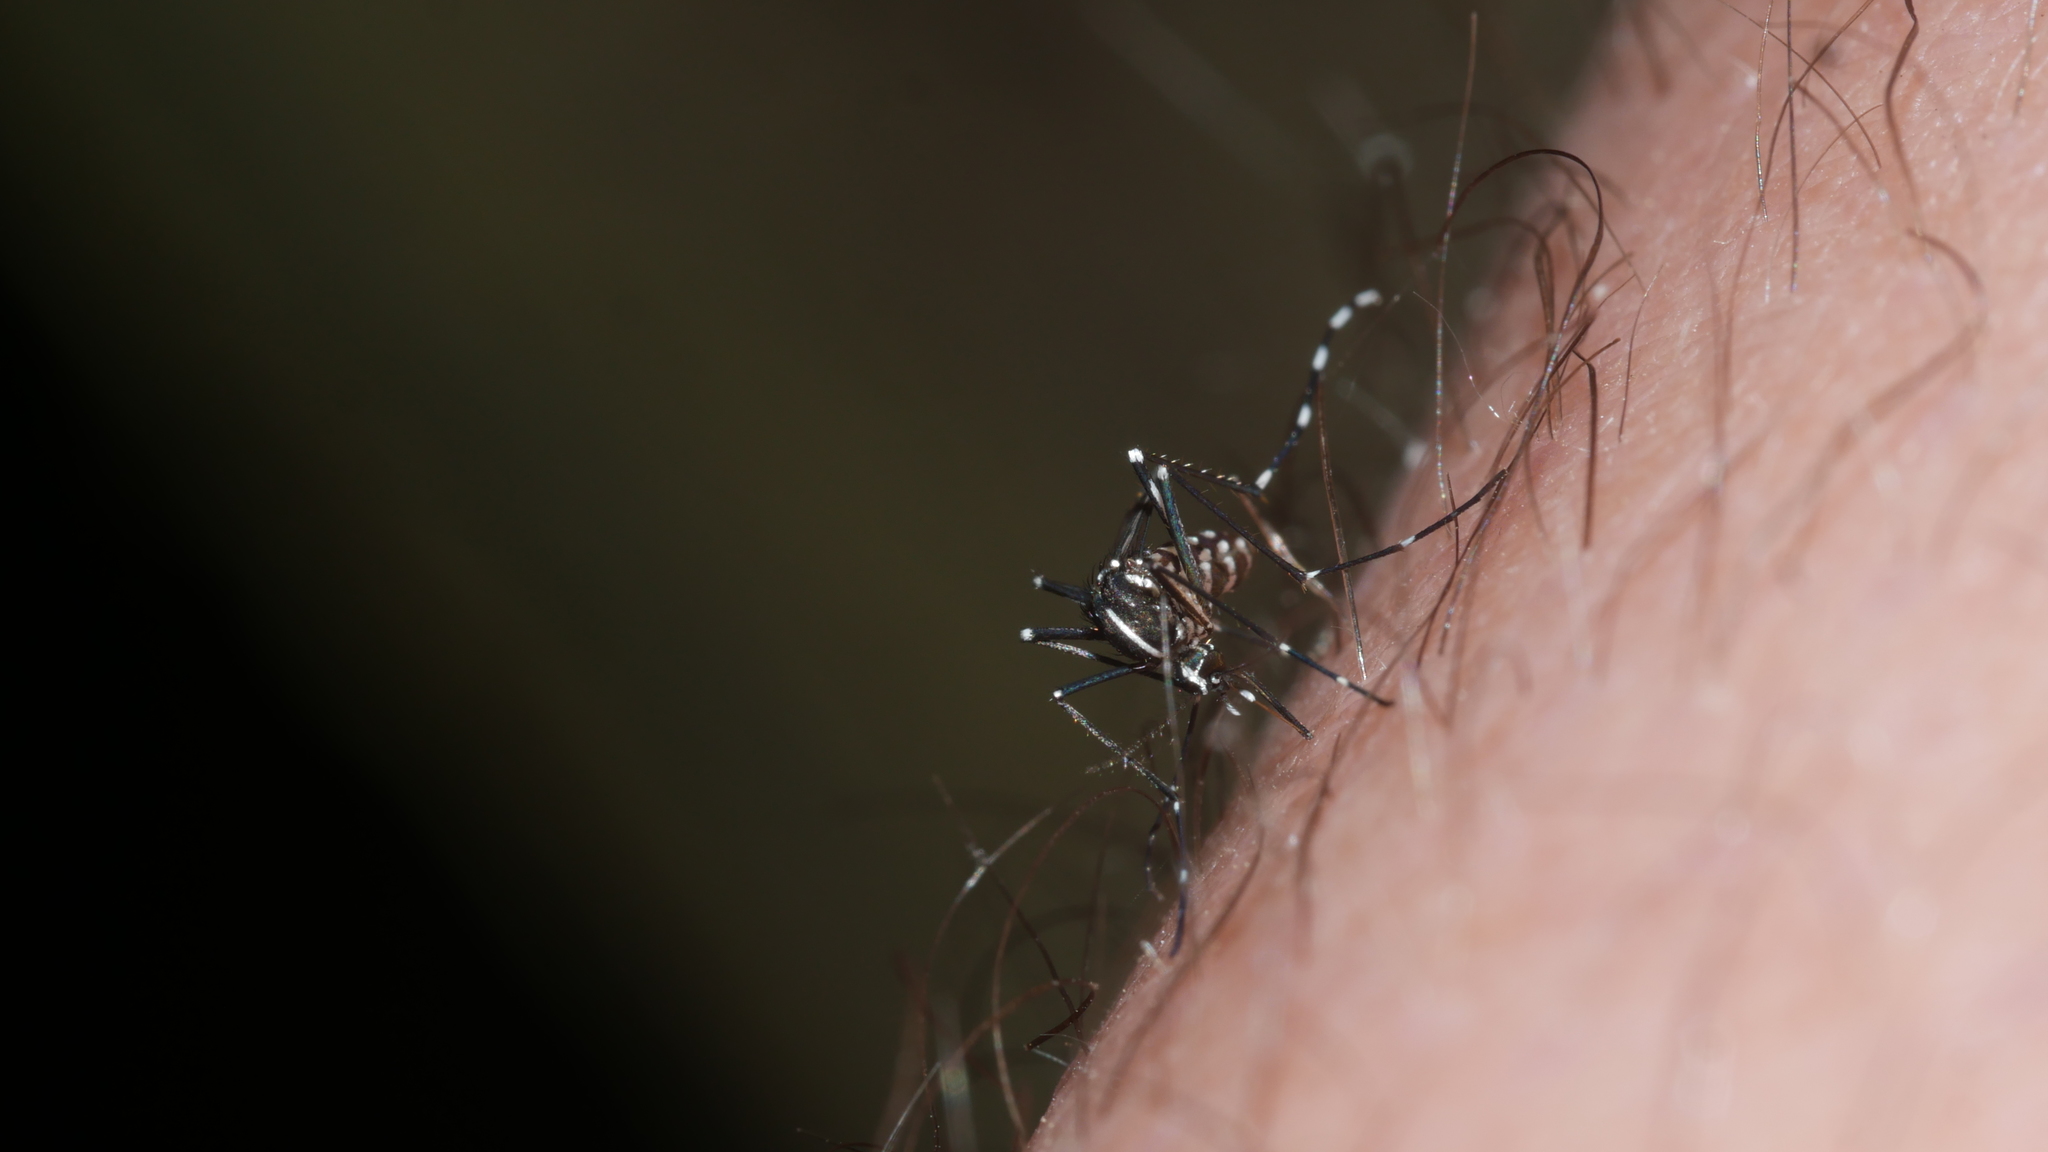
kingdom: Animalia
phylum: Arthropoda
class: Insecta
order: Diptera
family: Culicidae
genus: Aedes
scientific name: Aedes albopictus
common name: Tiger mosquito
